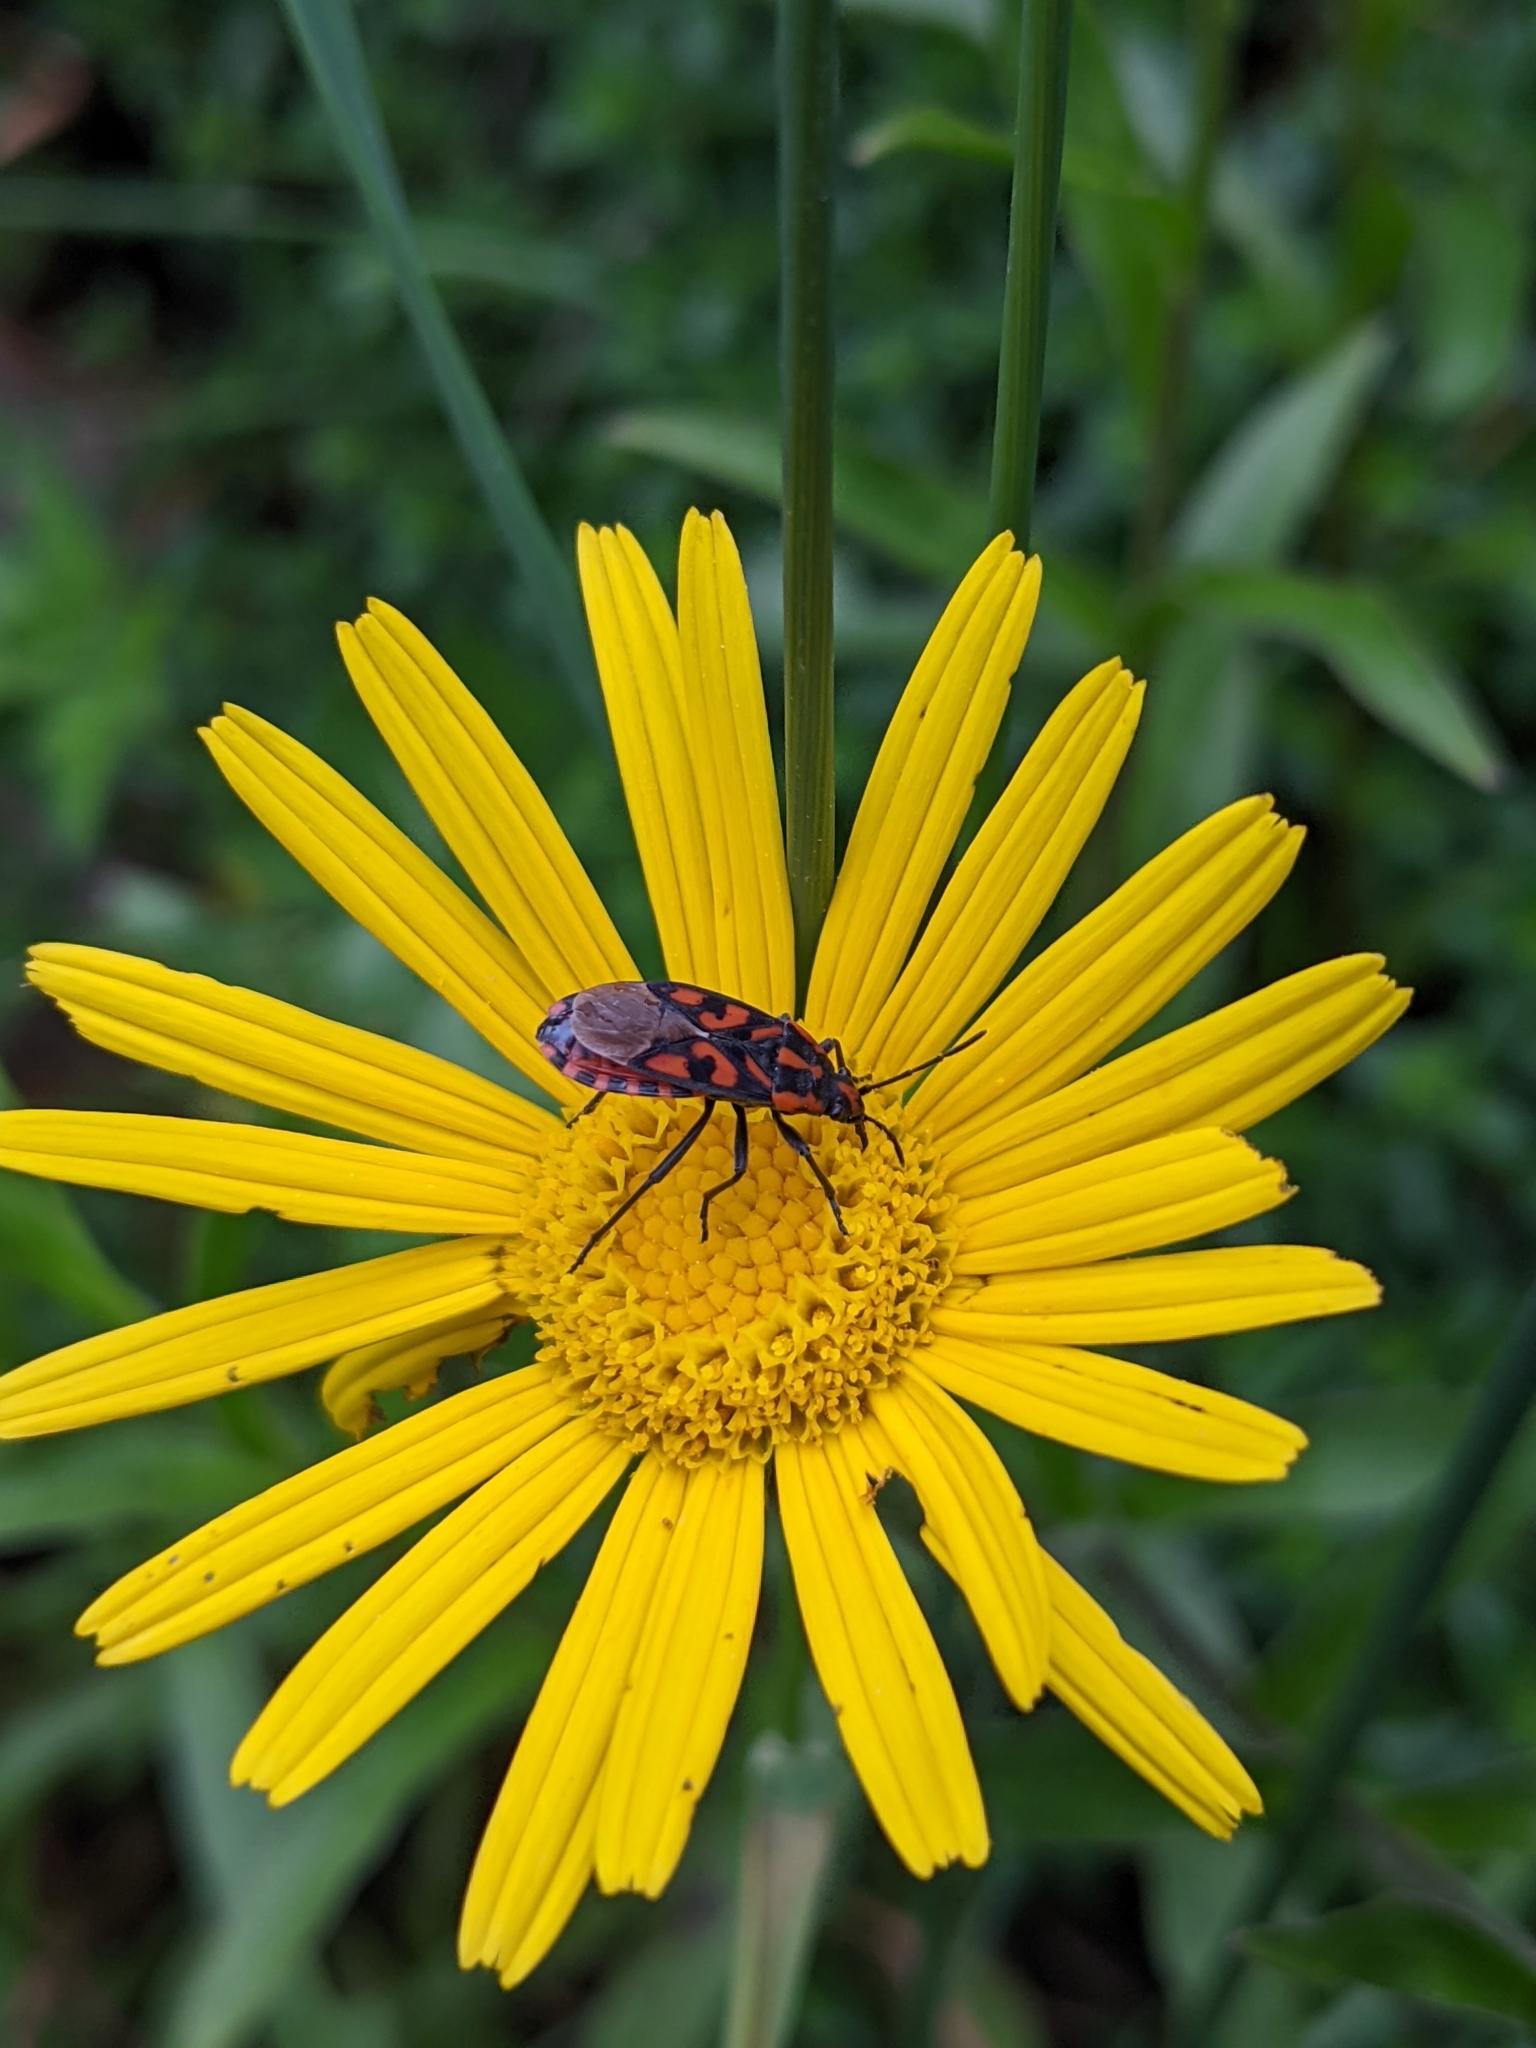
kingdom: Animalia
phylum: Arthropoda
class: Insecta
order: Hemiptera
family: Lygaeidae
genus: Spilostethus
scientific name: Spilostethus saxatilis
